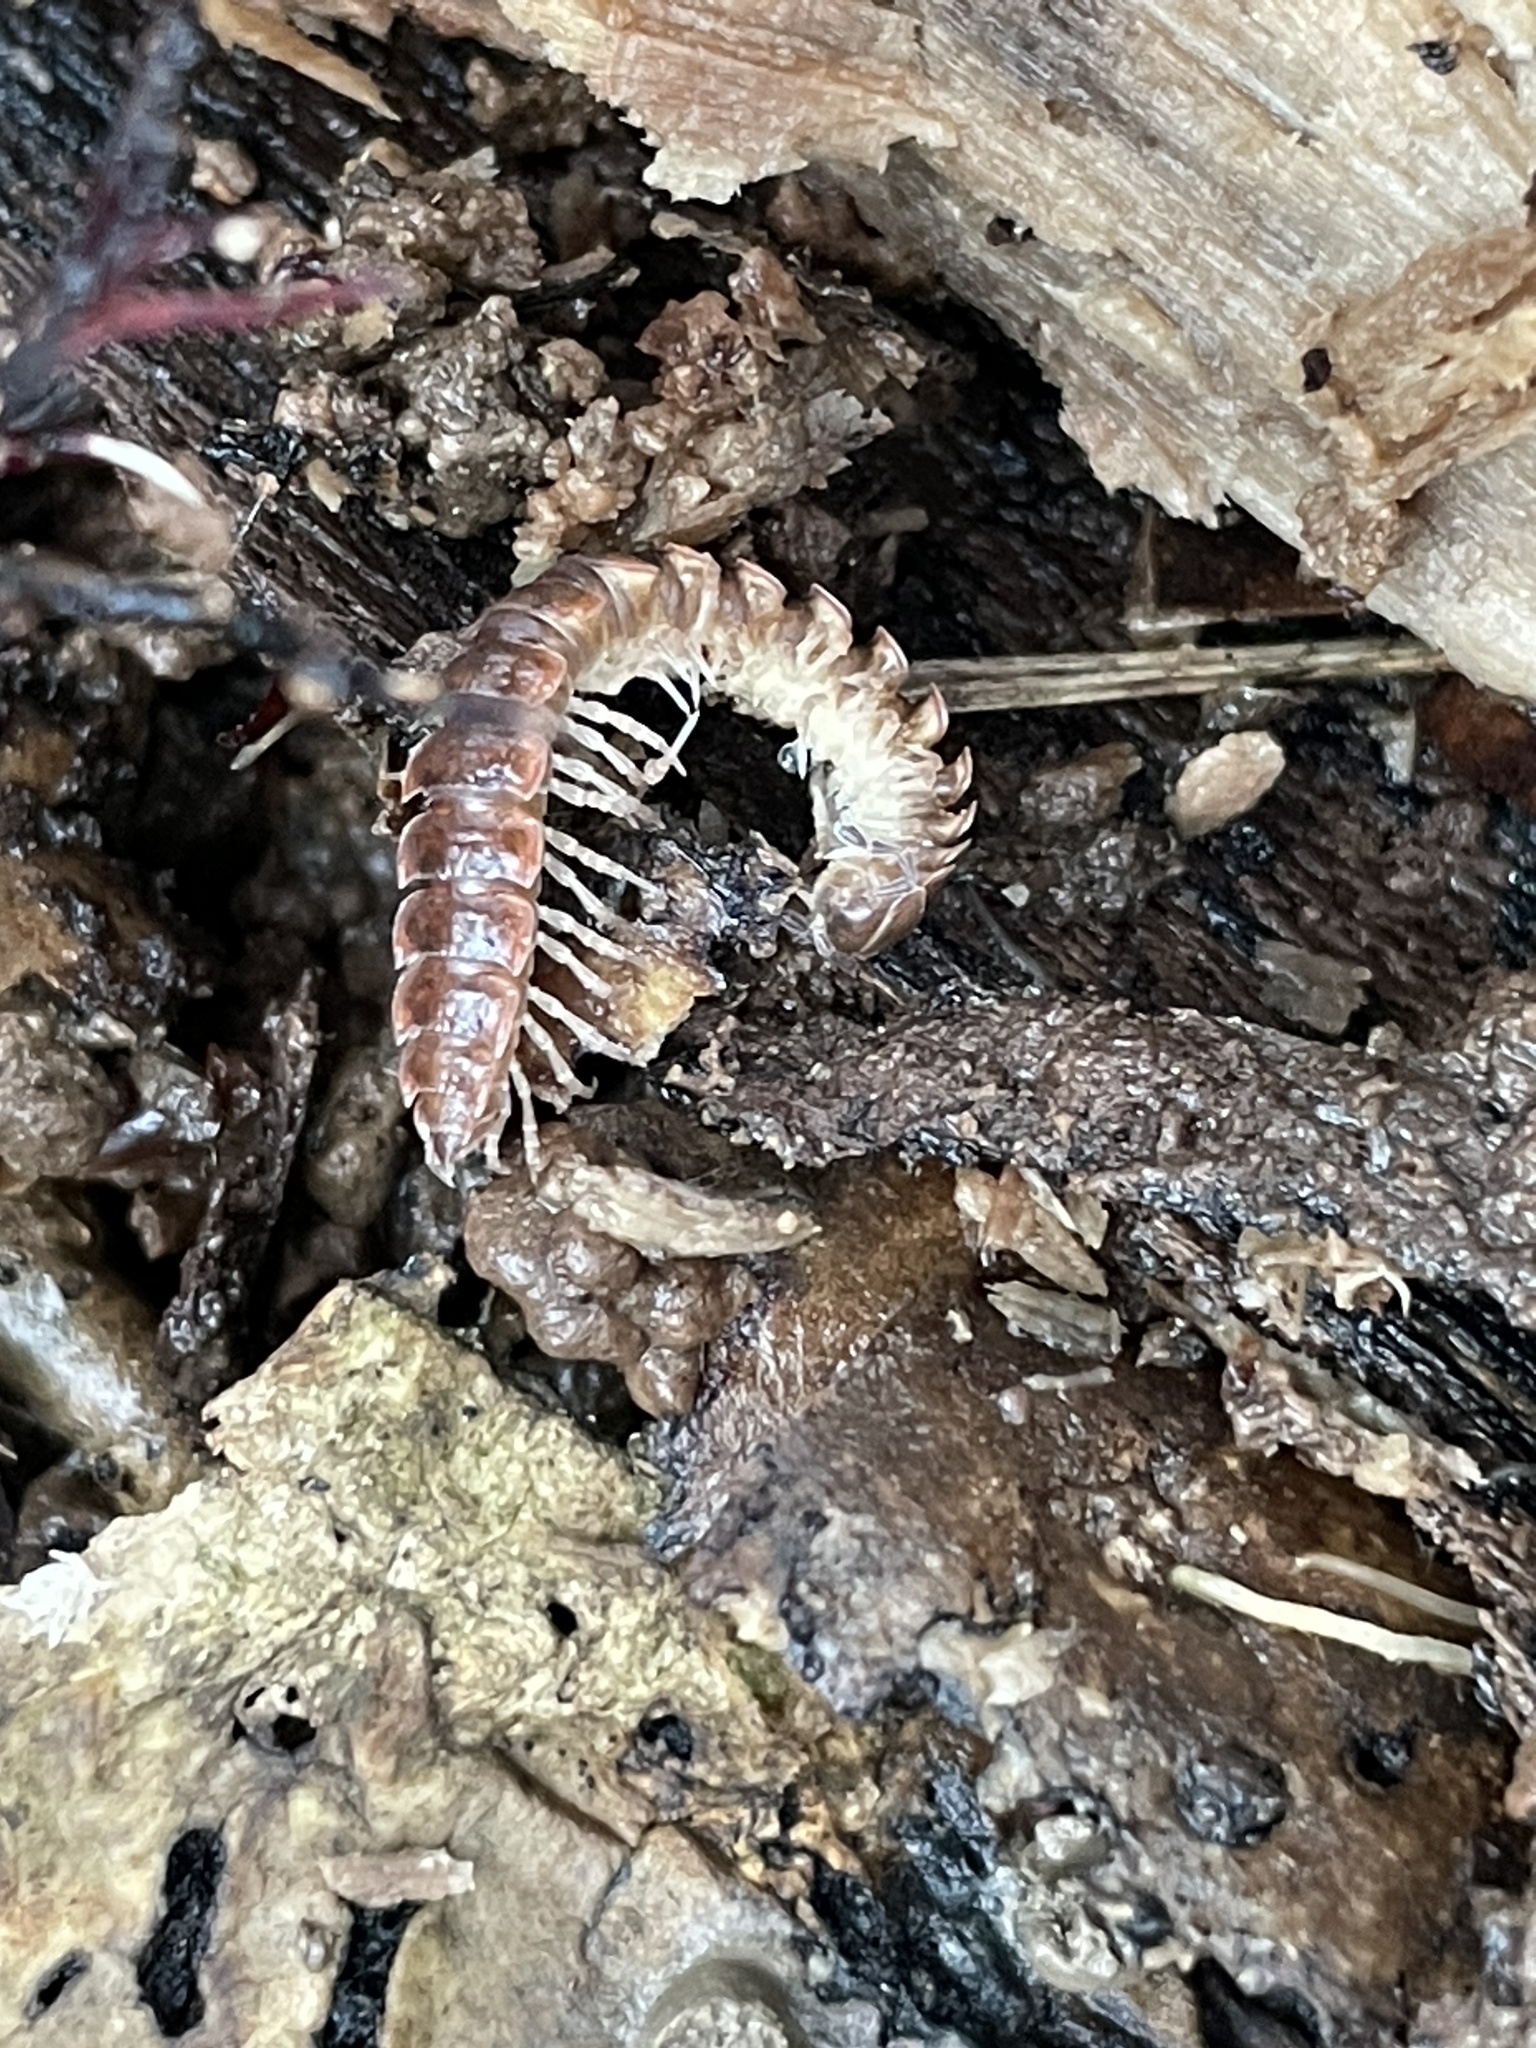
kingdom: Animalia
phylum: Arthropoda
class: Diplopoda
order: Polydesmida
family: Polydesmidae
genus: Pseudopolydesmus
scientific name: Pseudopolydesmus serratus
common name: Common pink flat-back millipede
